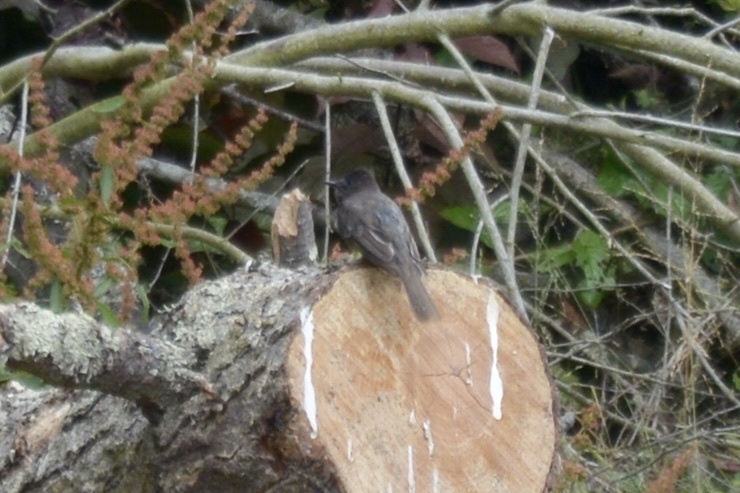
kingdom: Animalia
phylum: Chordata
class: Aves
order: Passeriformes
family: Tyrannidae
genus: Sayornis
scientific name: Sayornis nigricans
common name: Black phoebe
